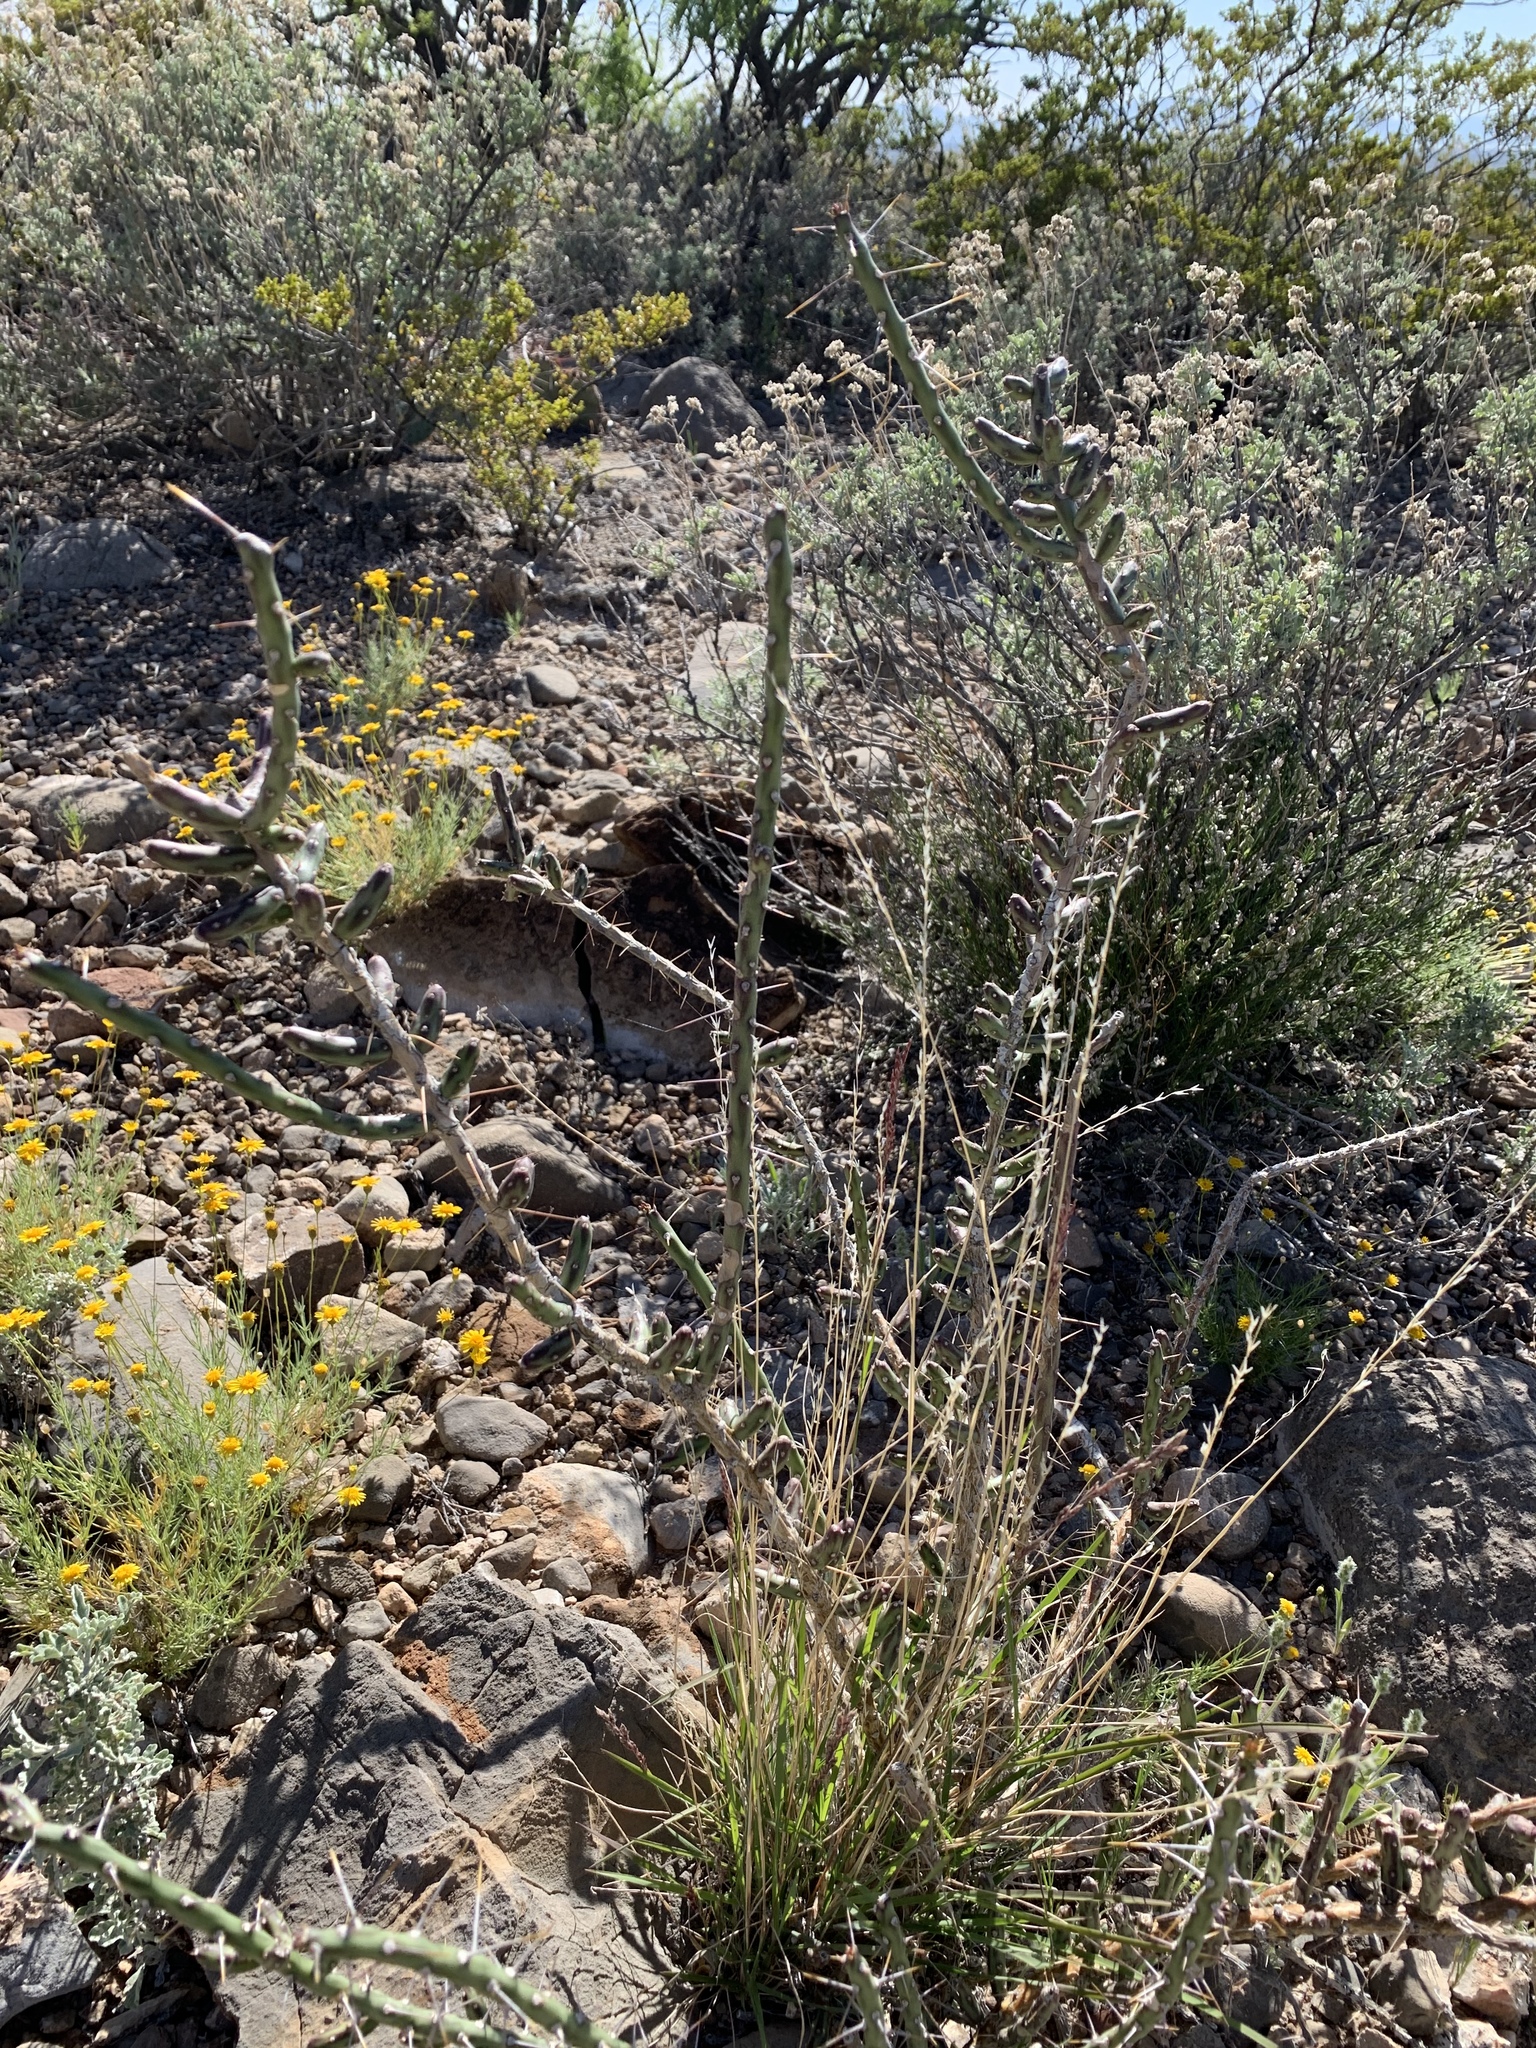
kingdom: Plantae
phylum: Tracheophyta
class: Magnoliopsida
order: Caryophyllales
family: Cactaceae
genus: Cylindropuntia
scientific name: Cylindropuntia leptocaulis
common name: Christmas cactus
